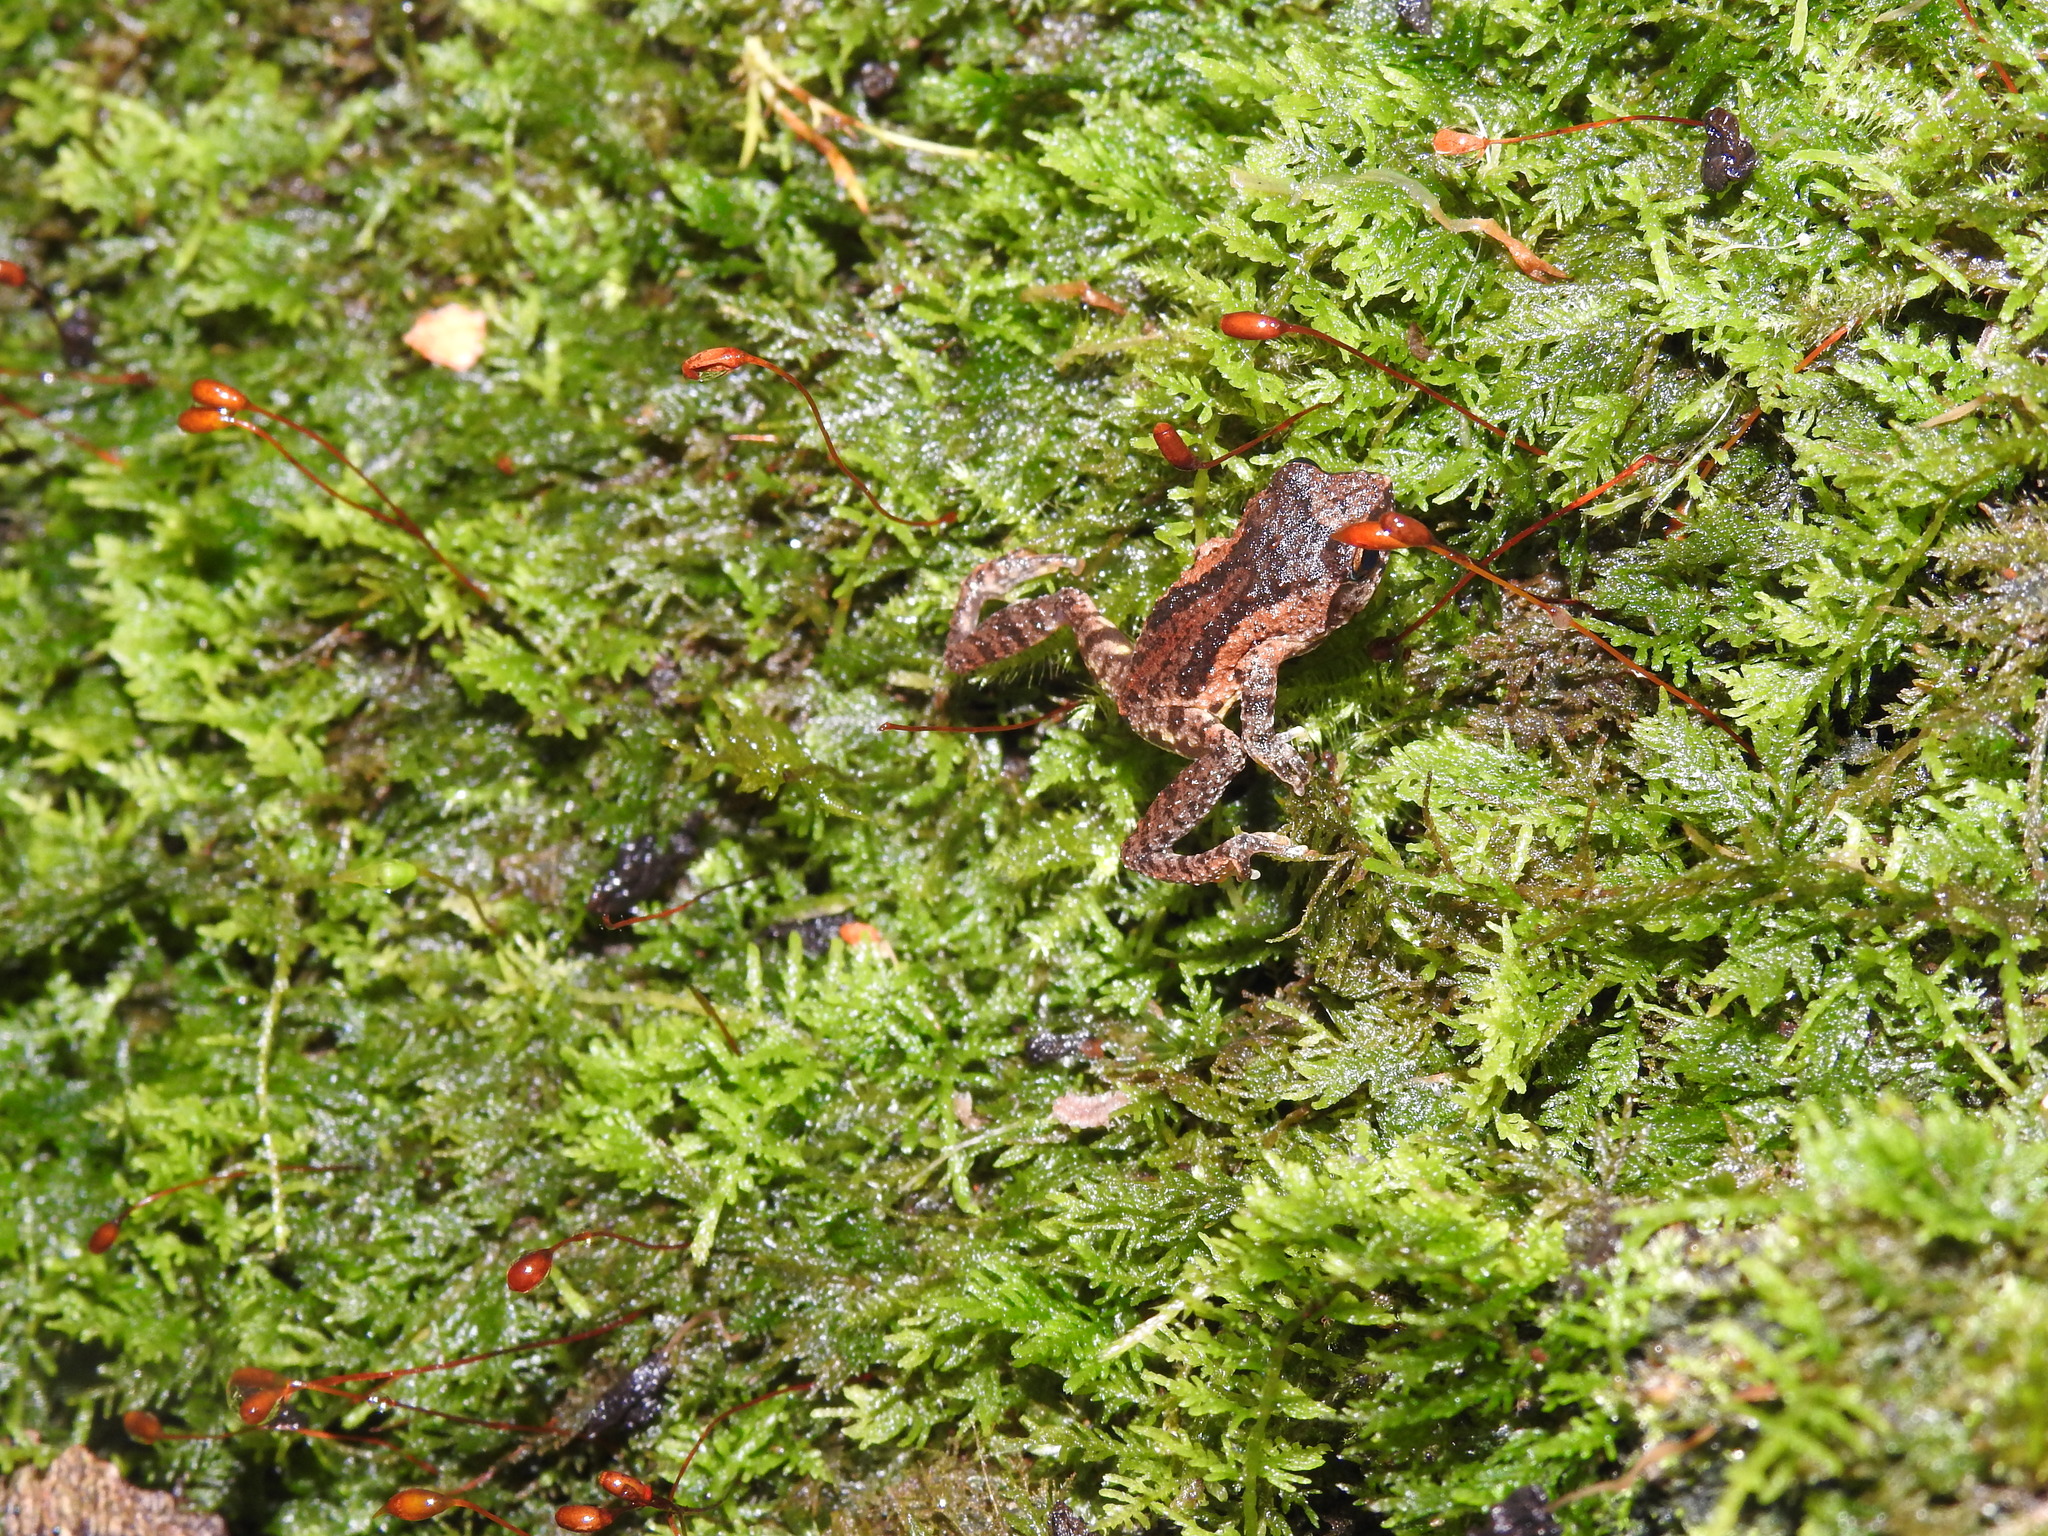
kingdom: Animalia
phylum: Chordata
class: Amphibia
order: Anura
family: Rhacophoridae
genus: Raorchestes
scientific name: Raorchestes dubois
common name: Koadaikanal bush frog
